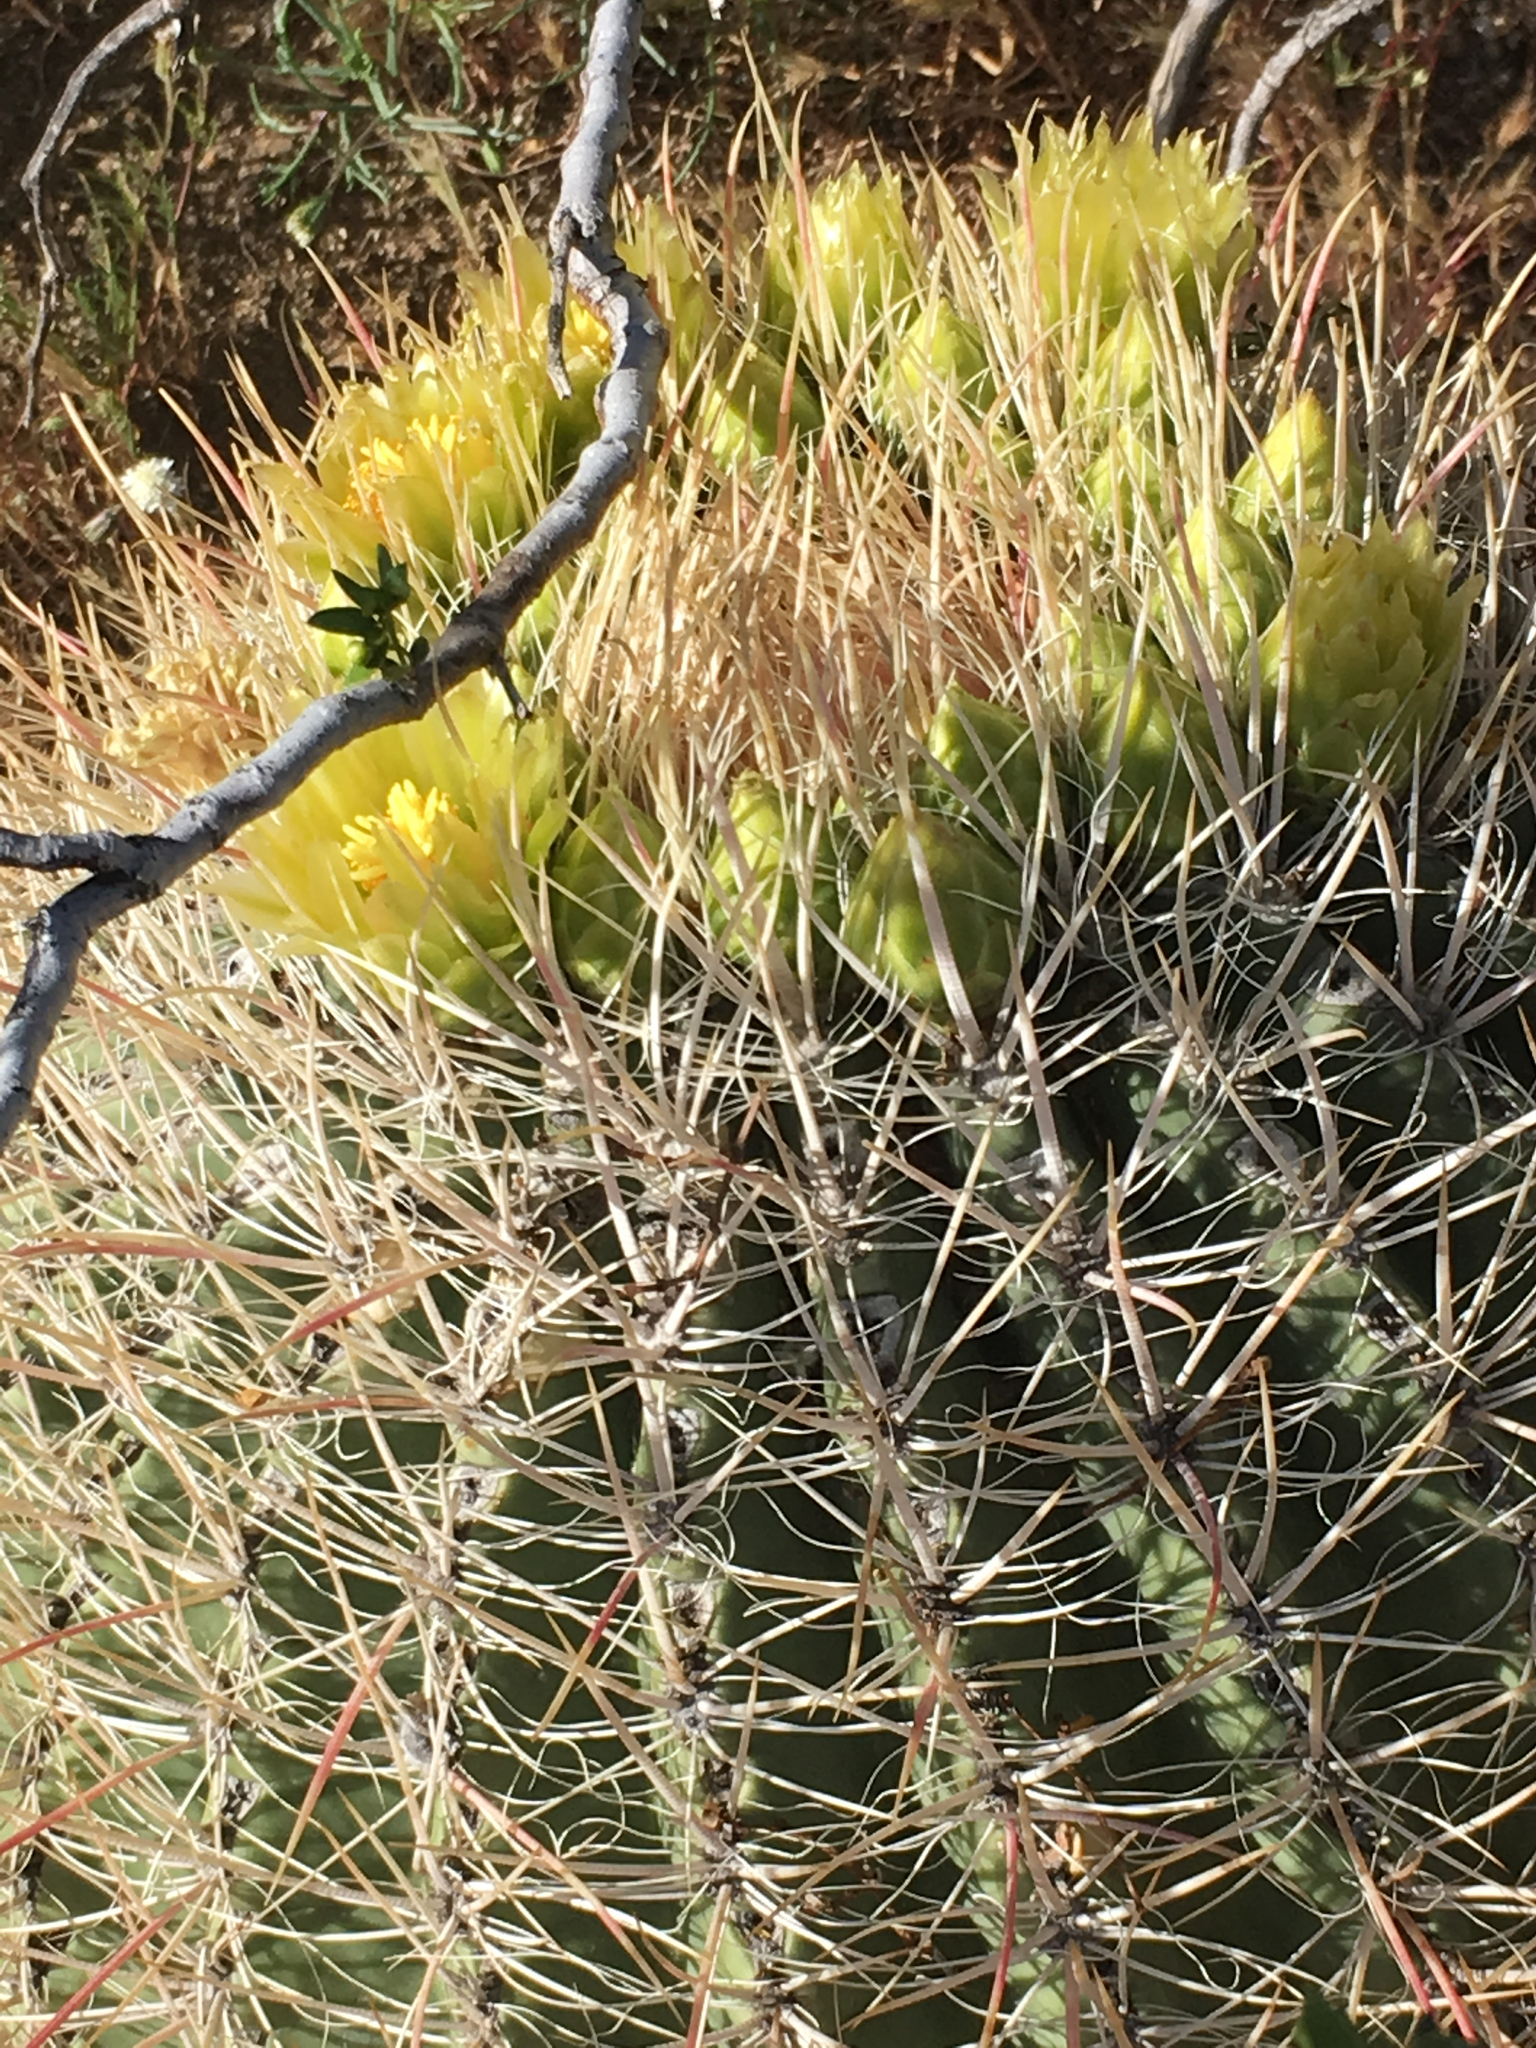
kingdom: Plantae
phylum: Tracheophyta
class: Magnoliopsida
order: Caryophyllales
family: Cactaceae
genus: Ferocactus
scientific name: Ferocactus cylindraceus
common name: California barrel cactus
